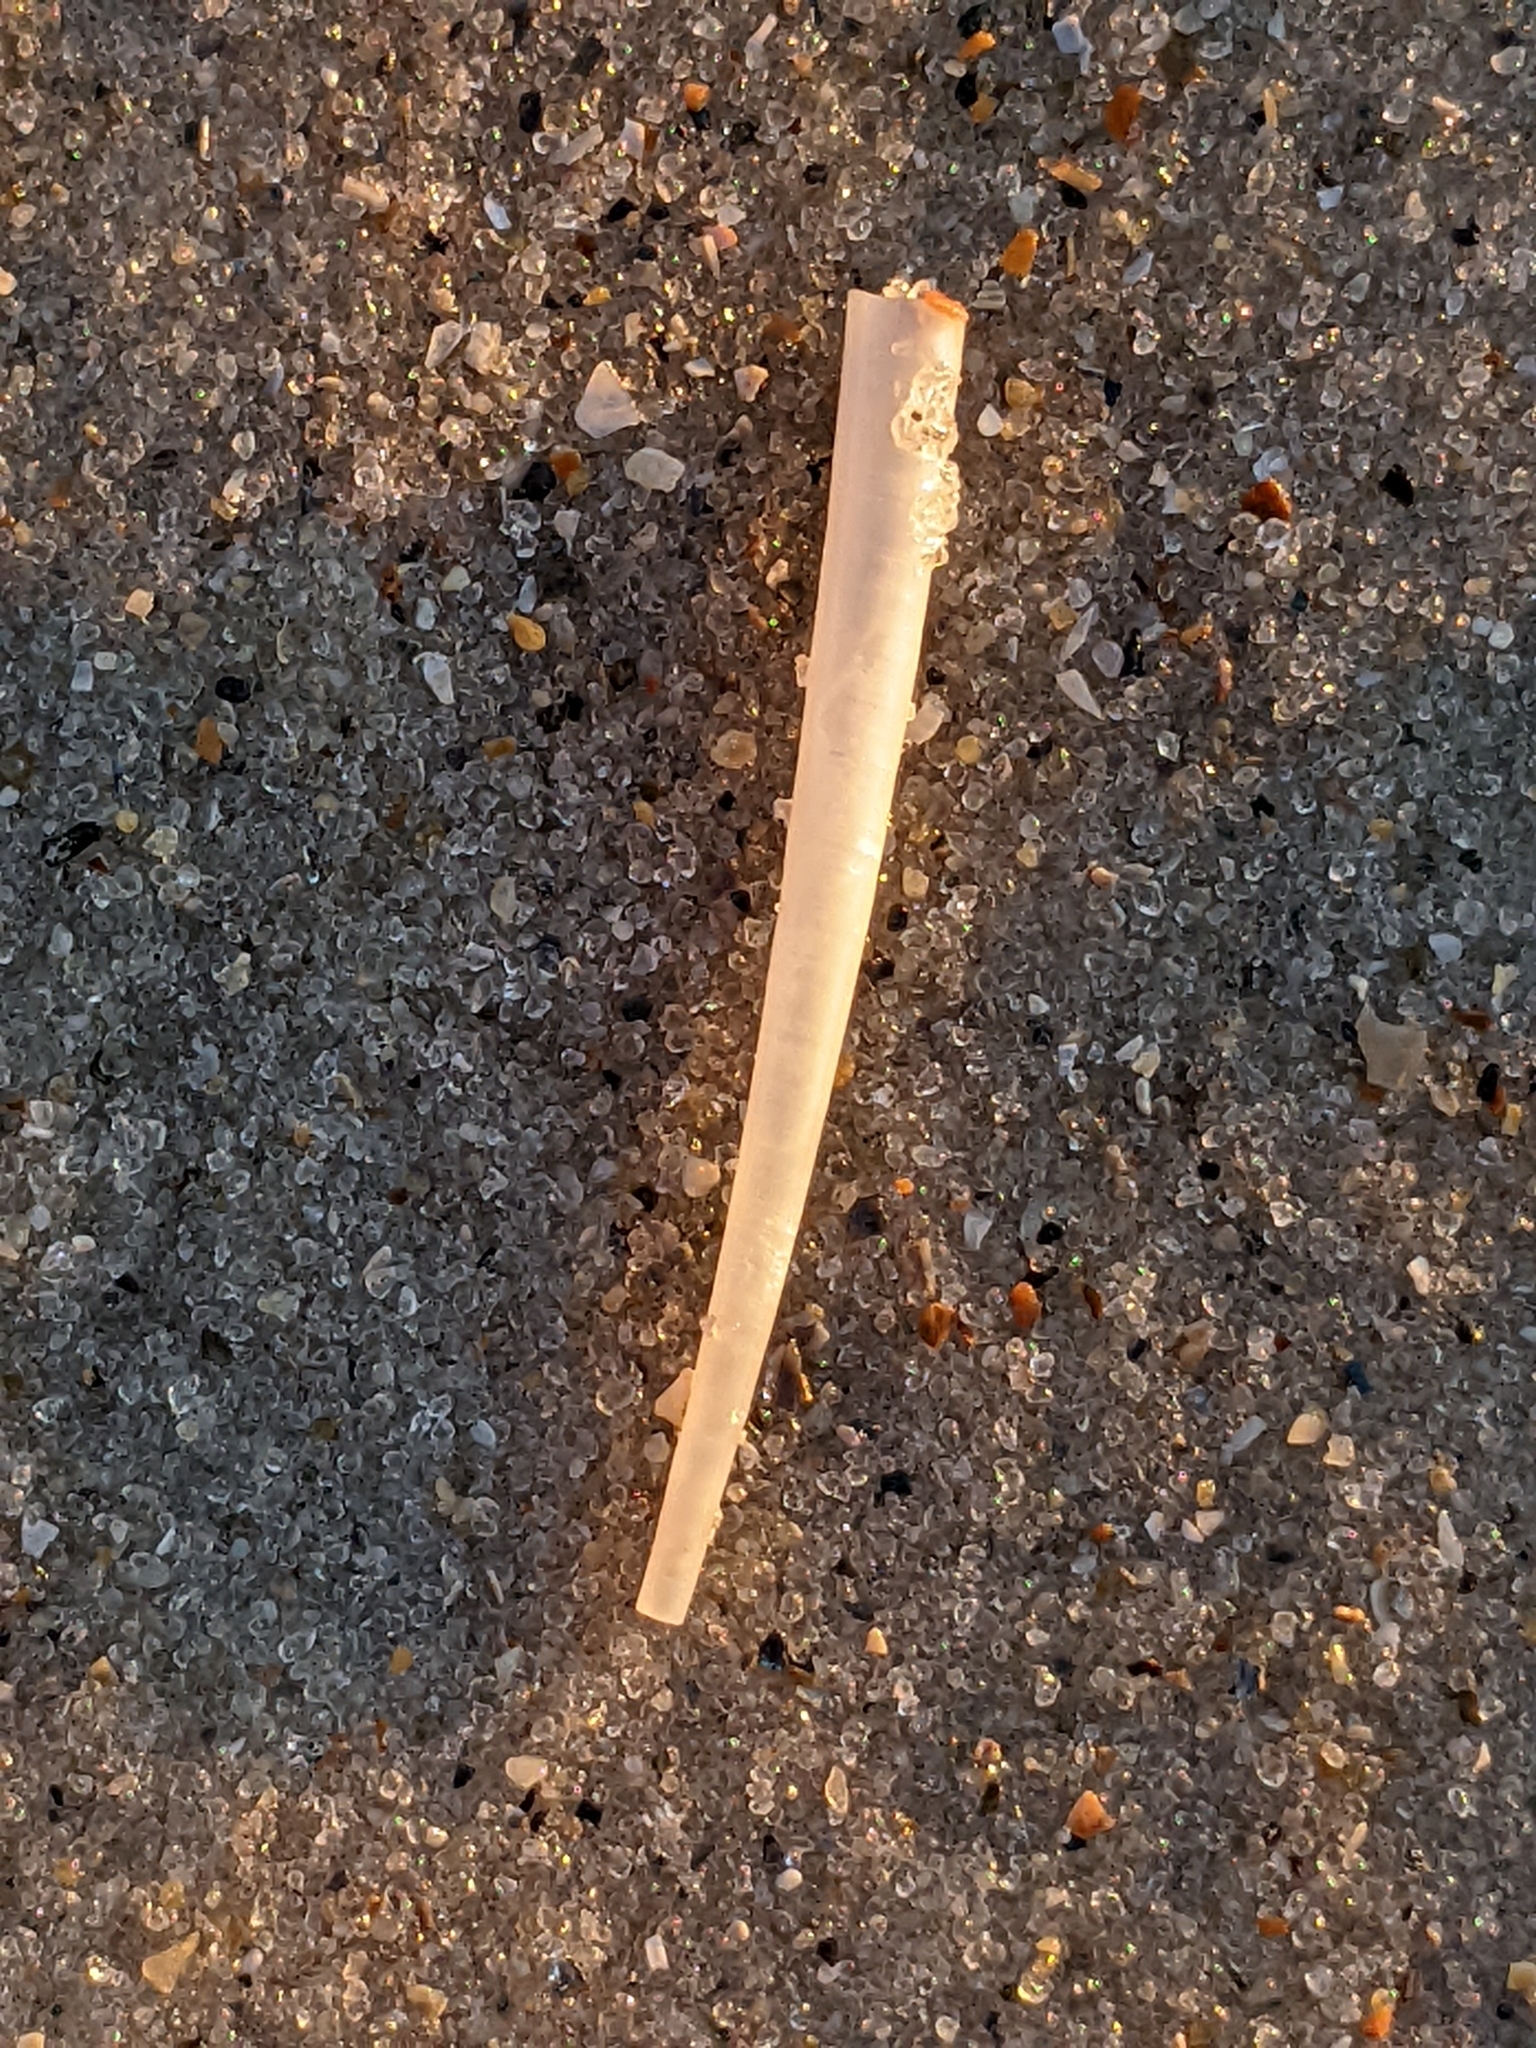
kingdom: Animalia
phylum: Mollusca
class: Scaphopoda
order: Dentaliida
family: Dentaliidae
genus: Graptacme
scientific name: Graptacme eborea
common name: Ivory tuskshell
